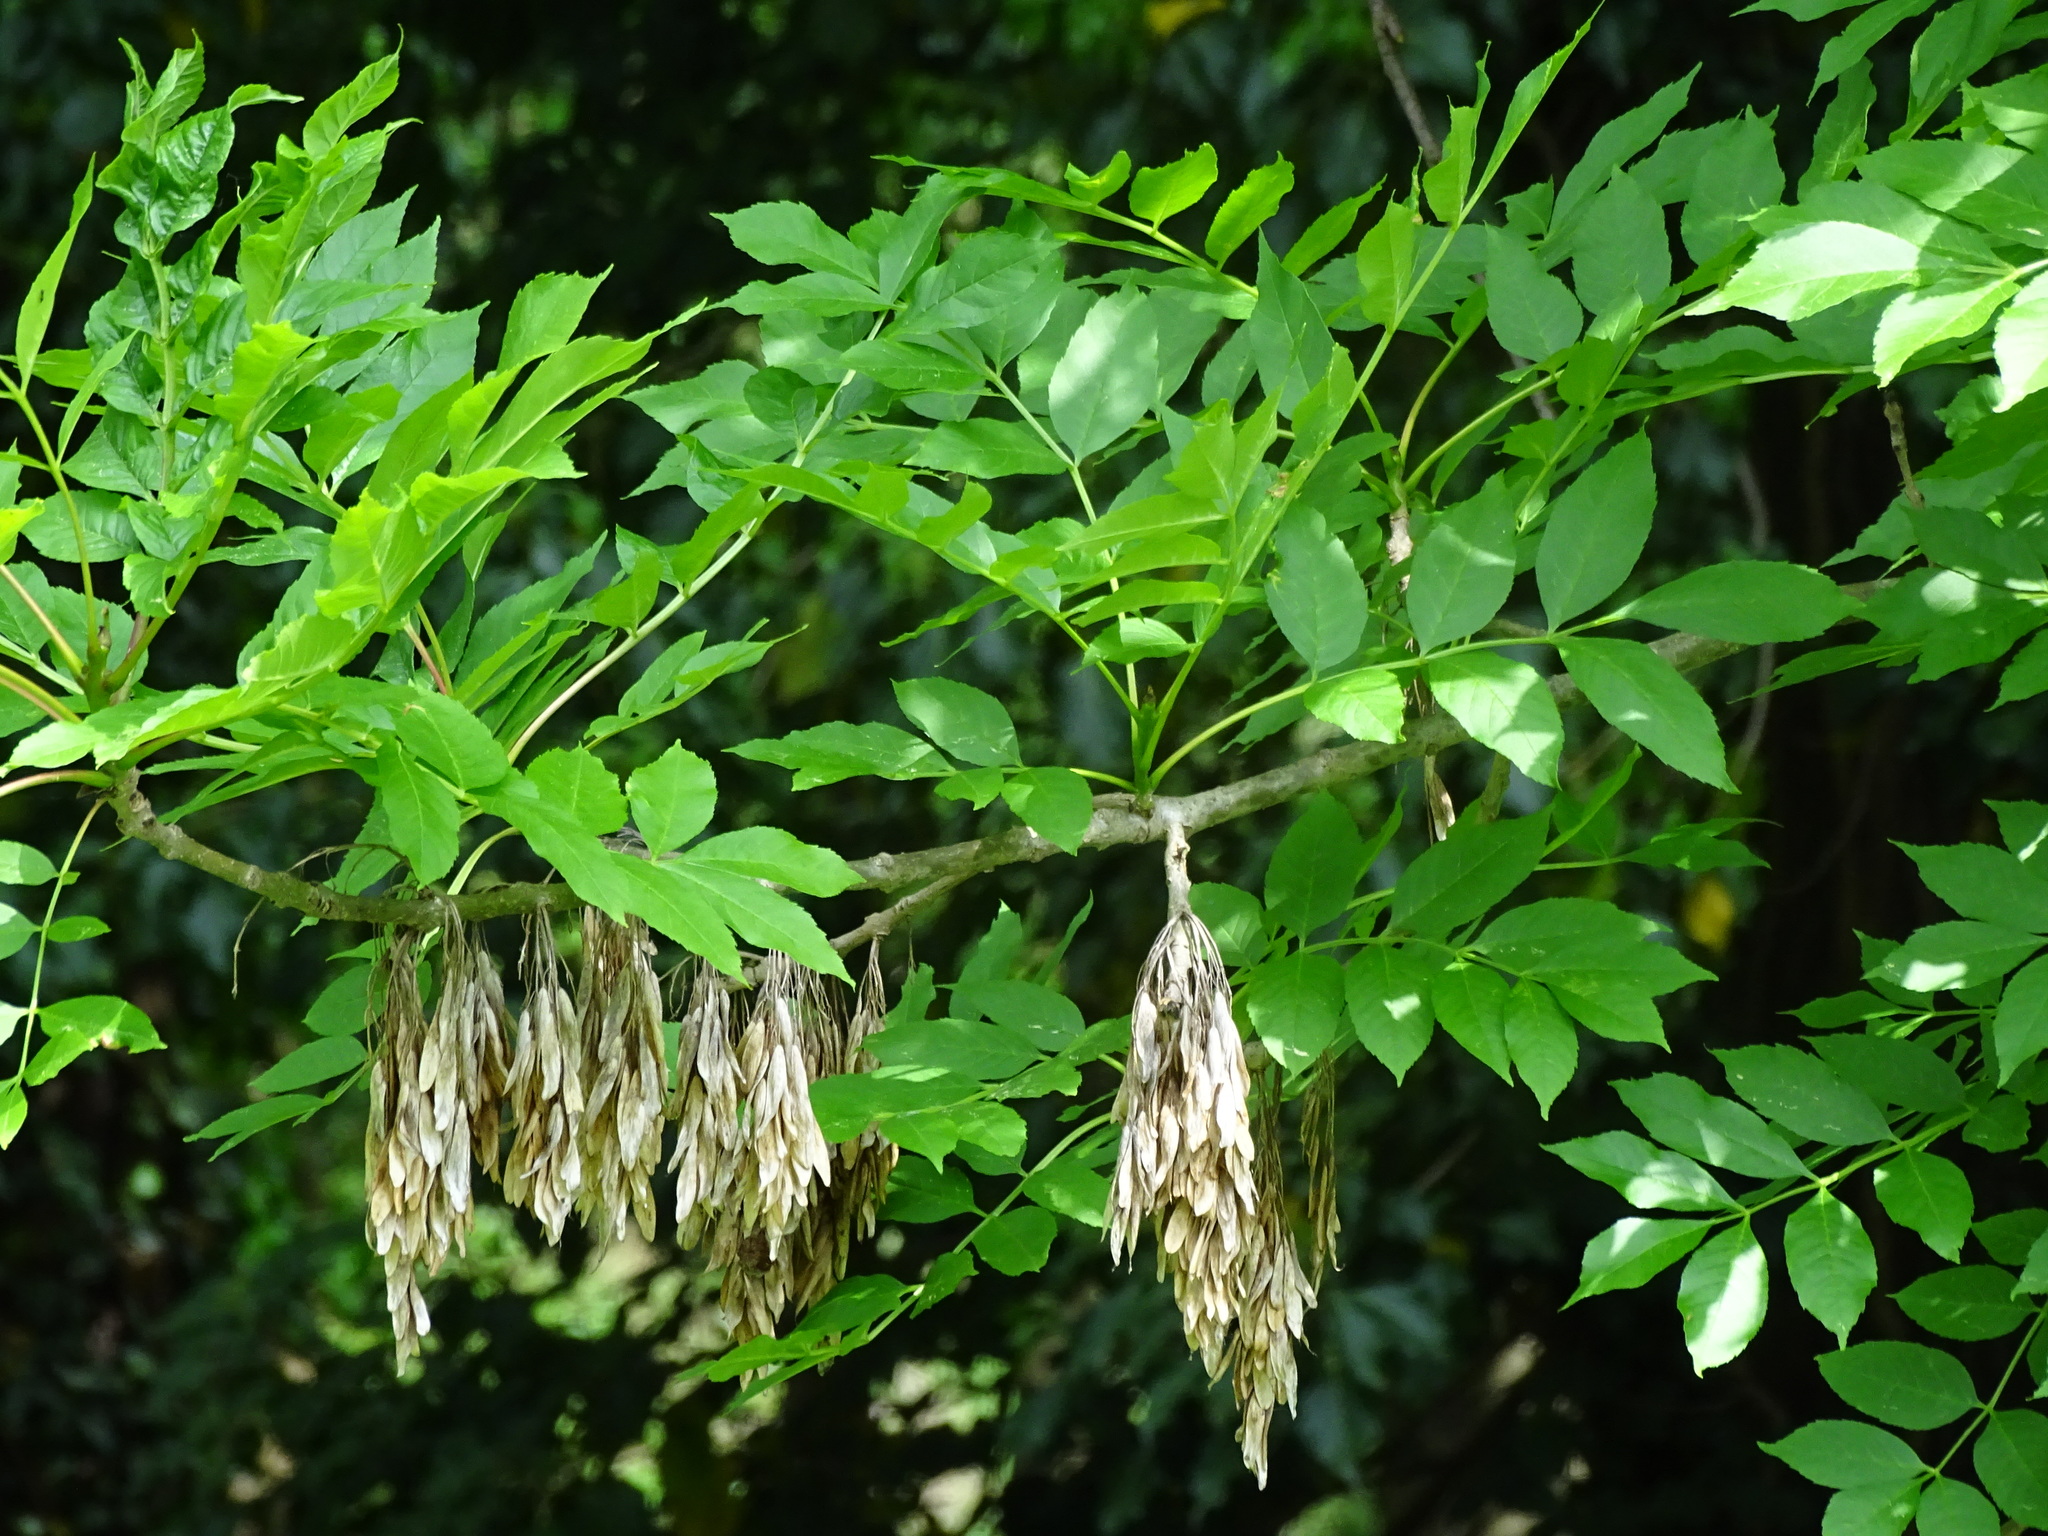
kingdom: Plantae
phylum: Tracheophyta
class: Magnoliopsida
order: Lamiales
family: Oleaceae
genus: Fraxinus
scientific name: Fraxinus excelsior
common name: European ash
